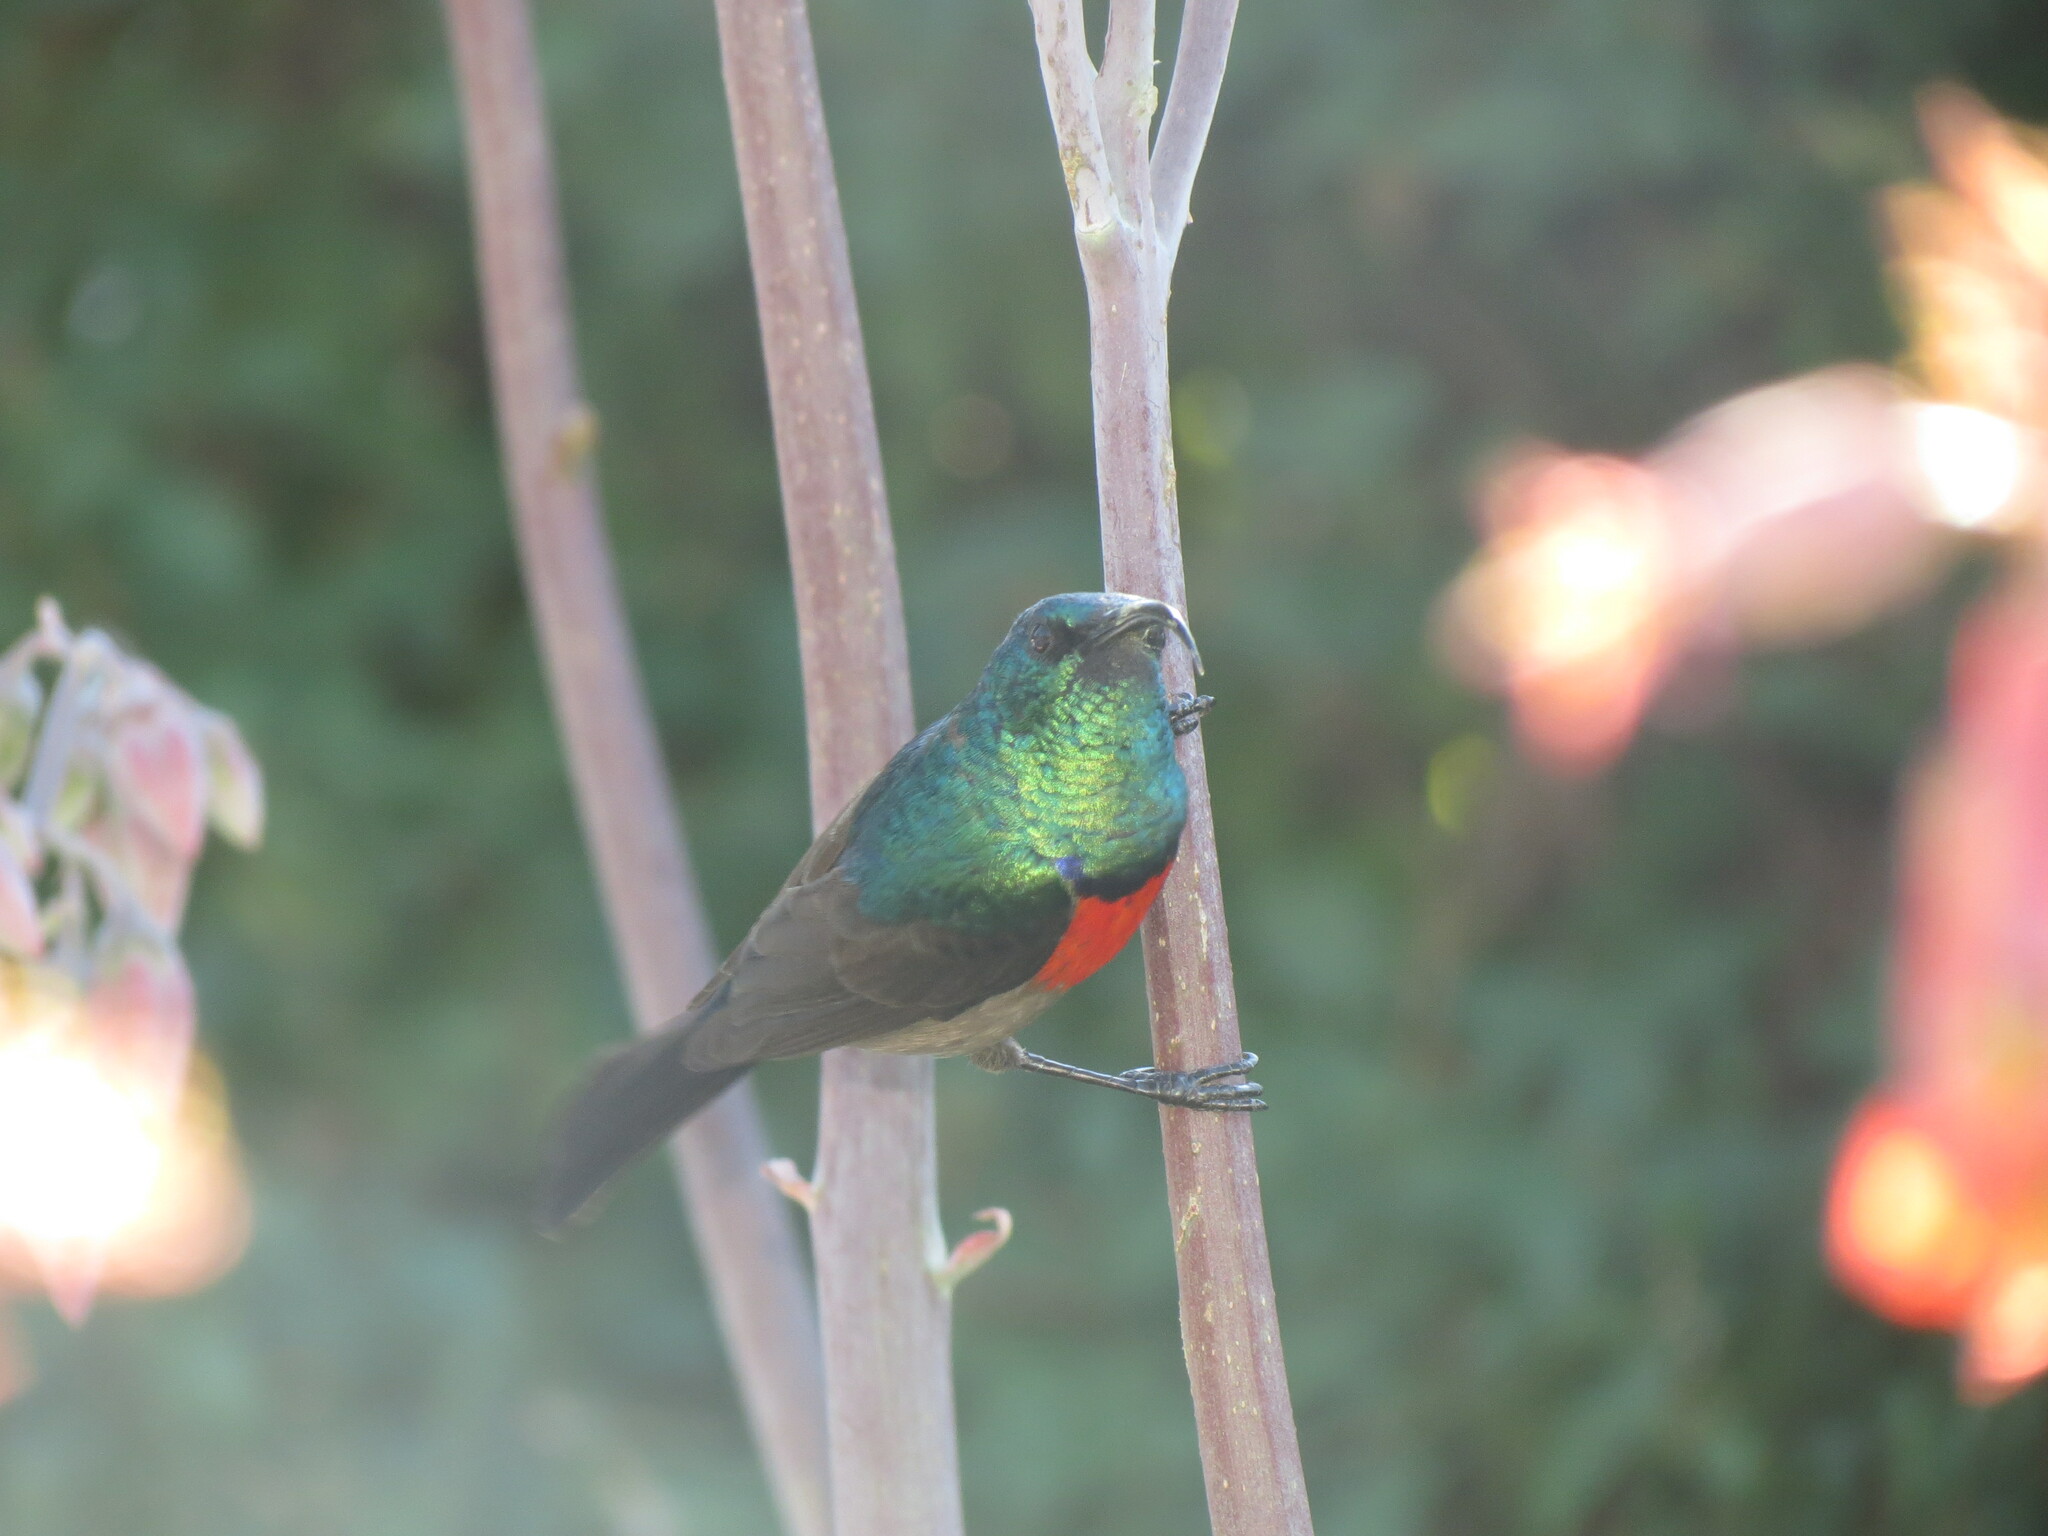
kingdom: Animalia
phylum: Chordata
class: Aves
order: Passeriformes
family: Nectariniidae
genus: Cinnyris
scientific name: Cinnyris afer
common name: Greater double-collared sunbird
